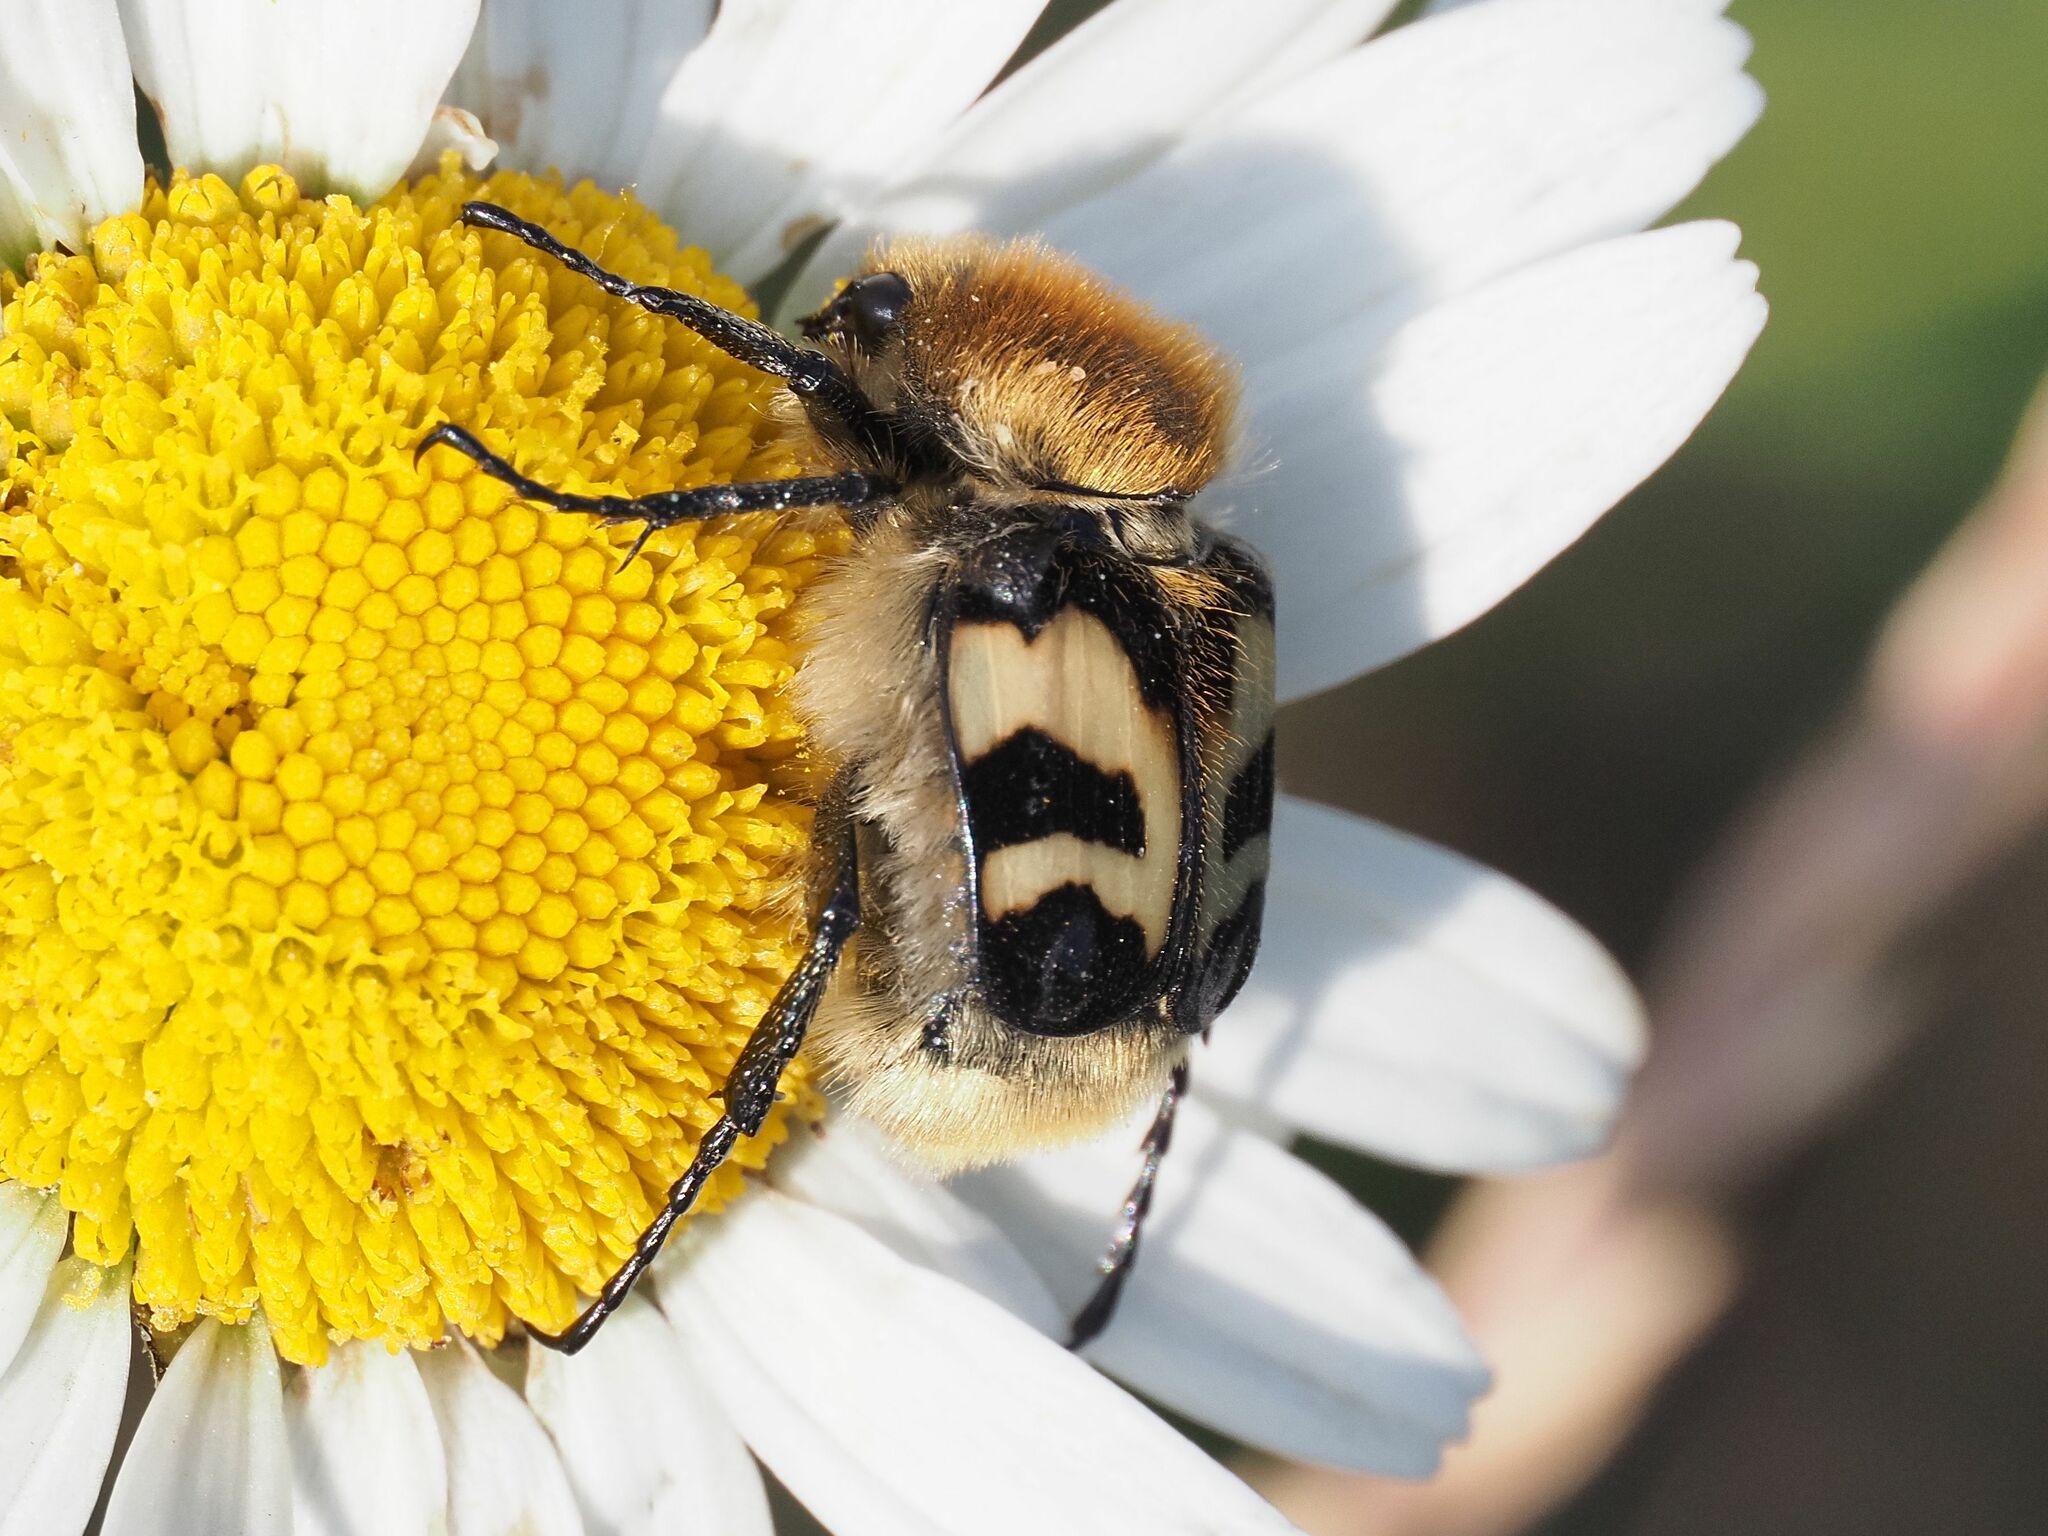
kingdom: Animalia
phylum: Arthropoda
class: Insecta
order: Coleoptera
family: Scarabaeidae
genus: Trichius
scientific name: Trichius fasciatus
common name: Bee beetle
